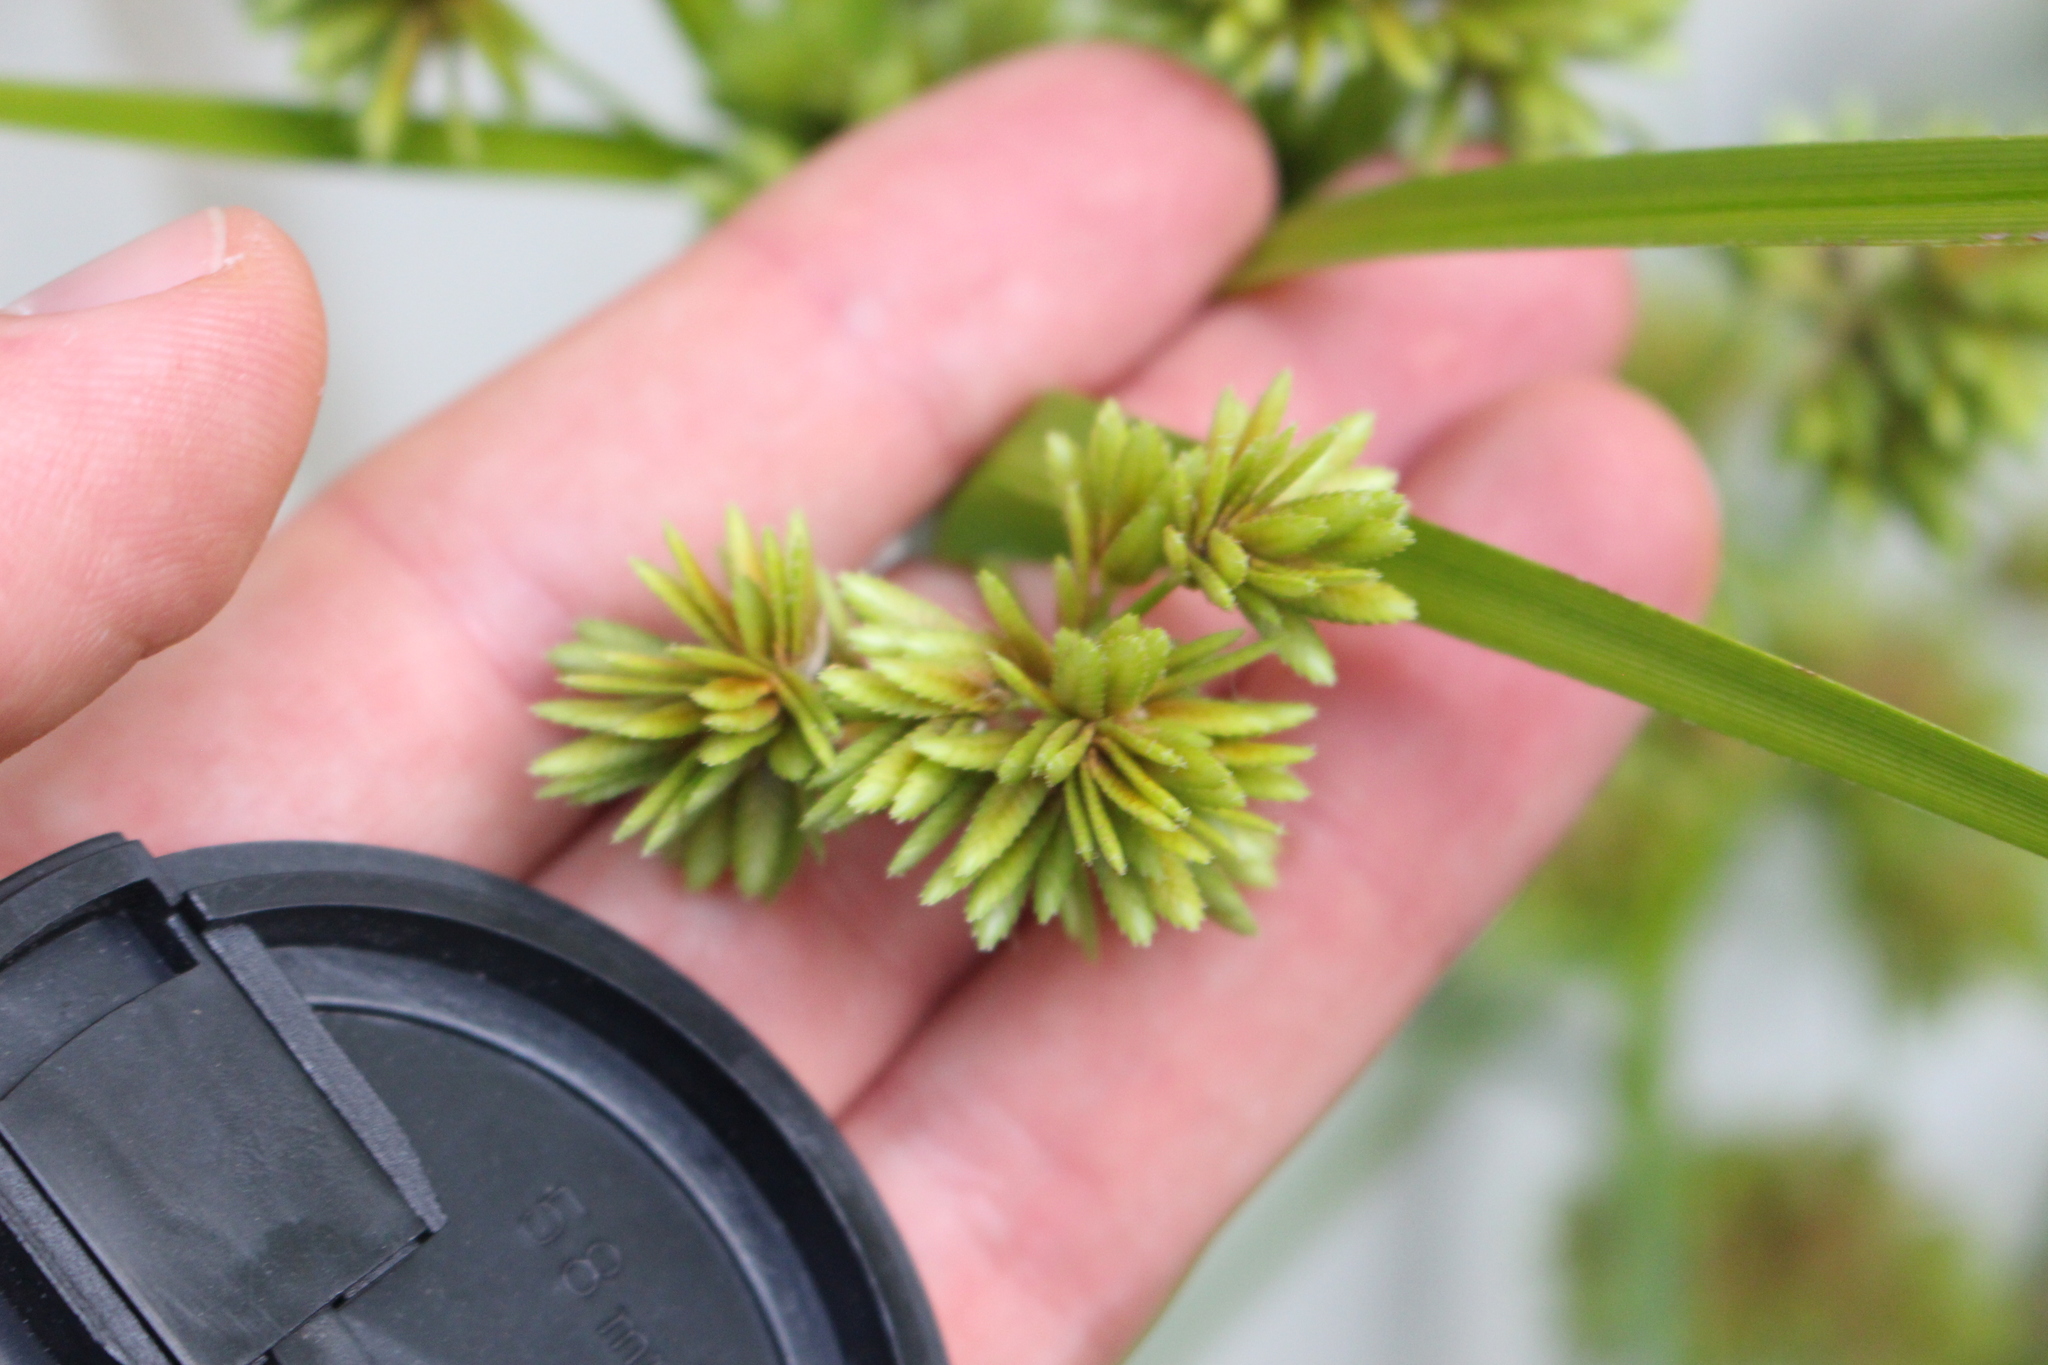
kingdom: Plantae
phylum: Tracheophyta
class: Liliopsida
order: Poales
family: Cyperaceae
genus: Cyperus
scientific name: Cyperus eragrostis
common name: Tall flatsedge
